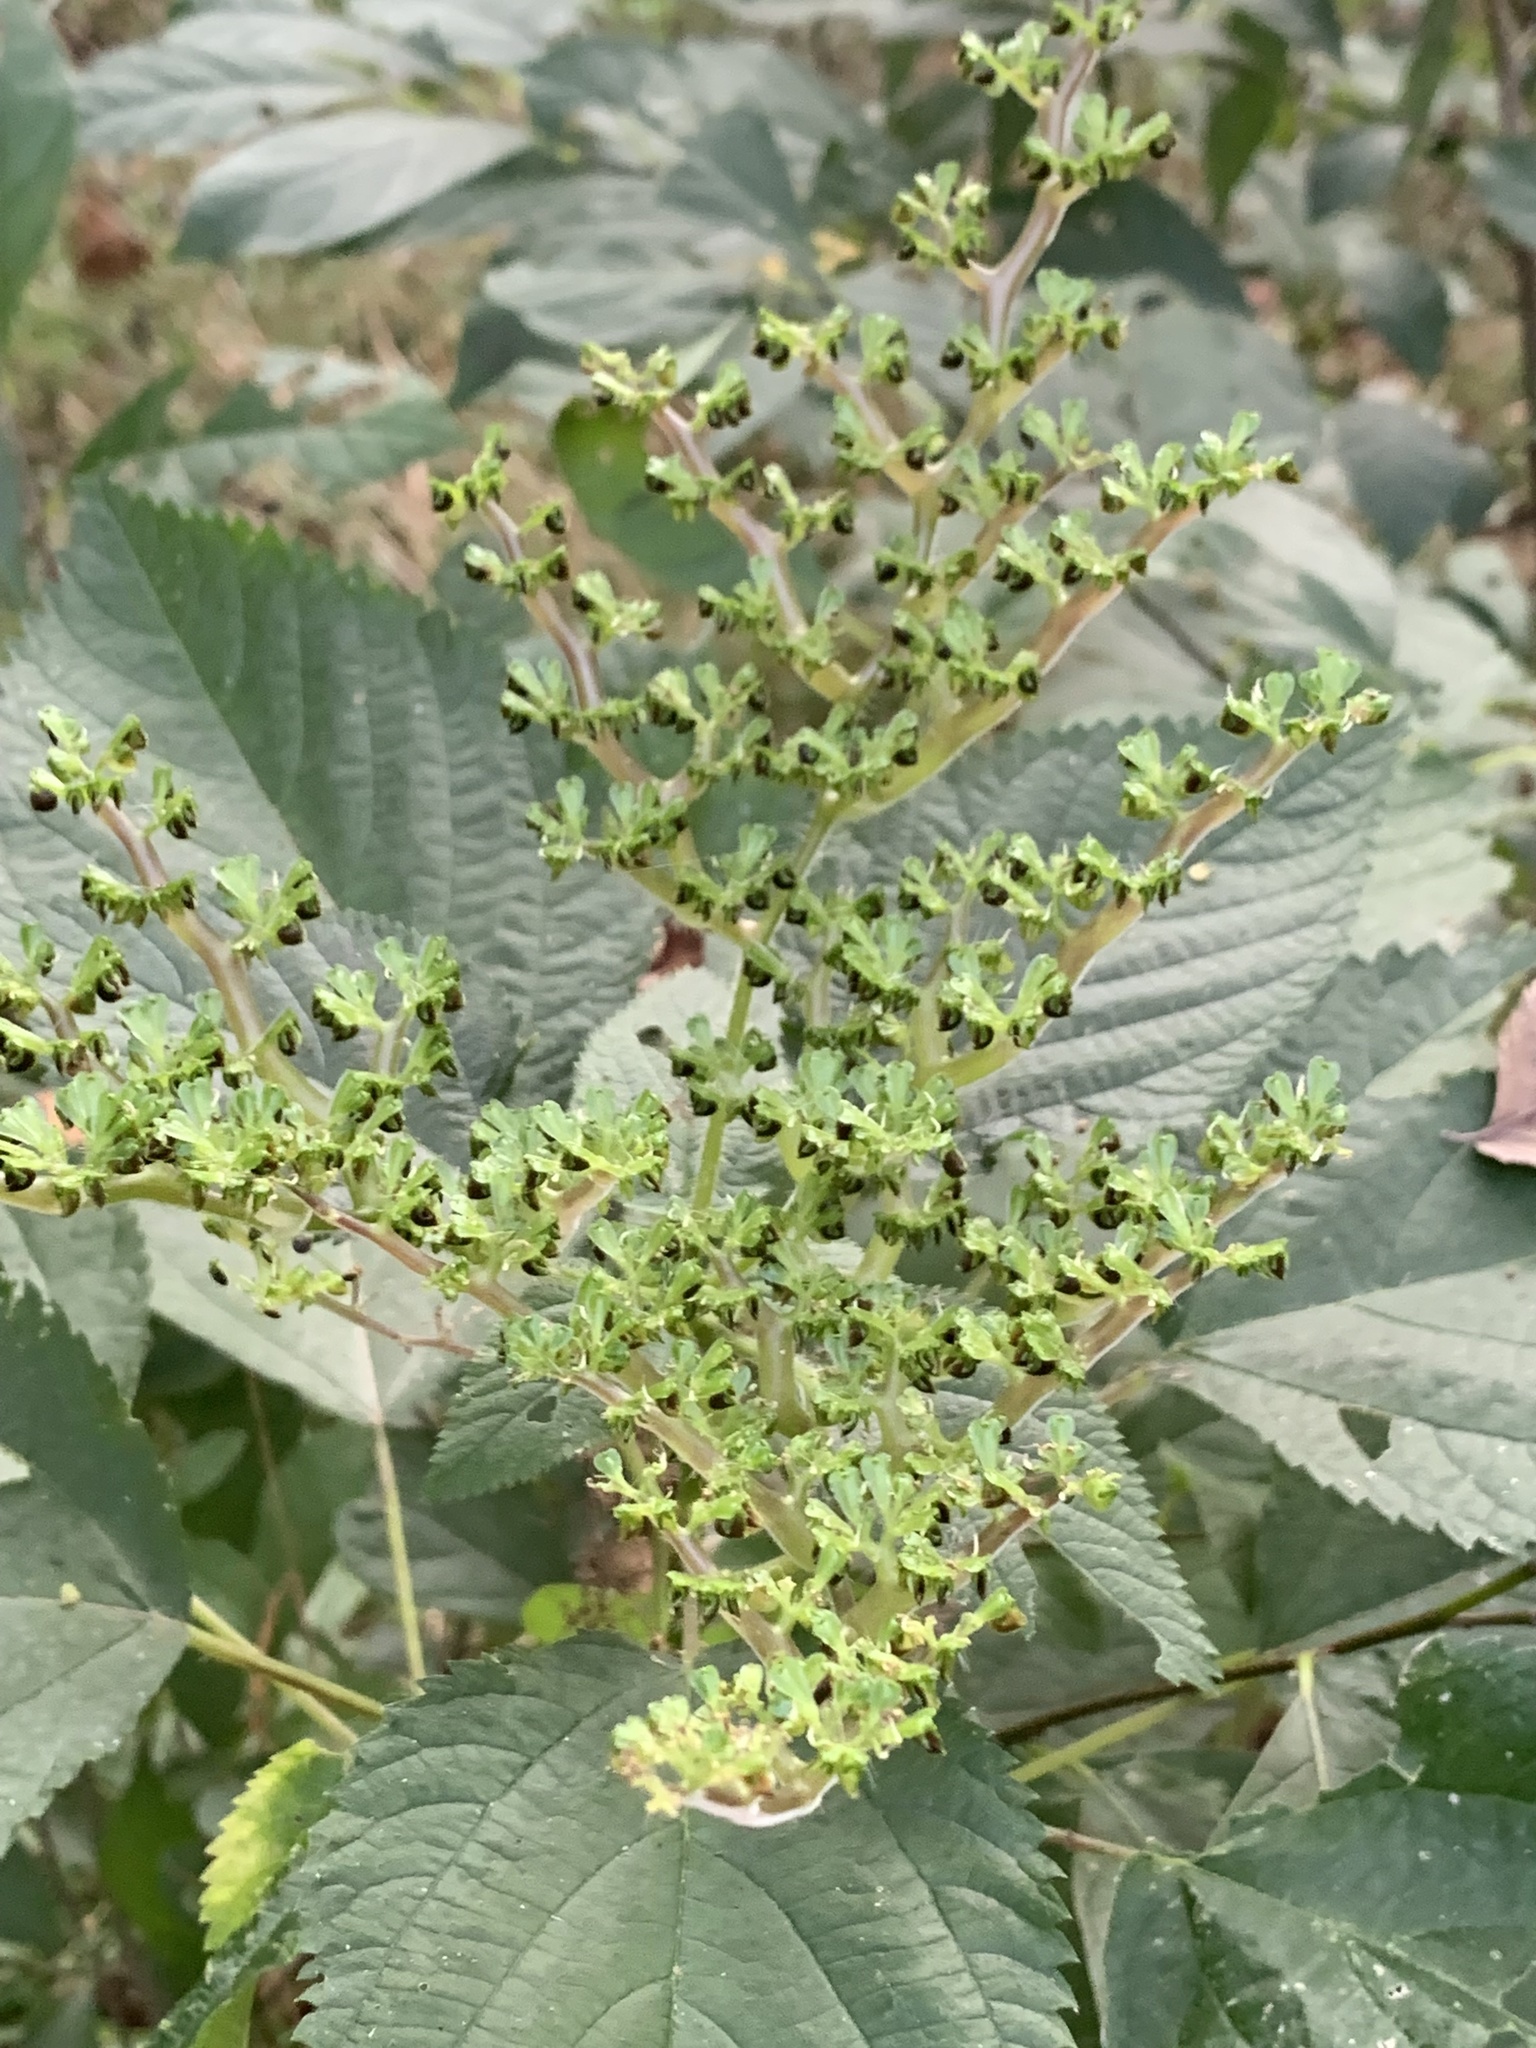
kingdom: Plantae
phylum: Tracheophyta
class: Magnoliopsida
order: Rosales
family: Urticaceae
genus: Laportea
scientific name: Laportea canadensis
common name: Canada nettle
